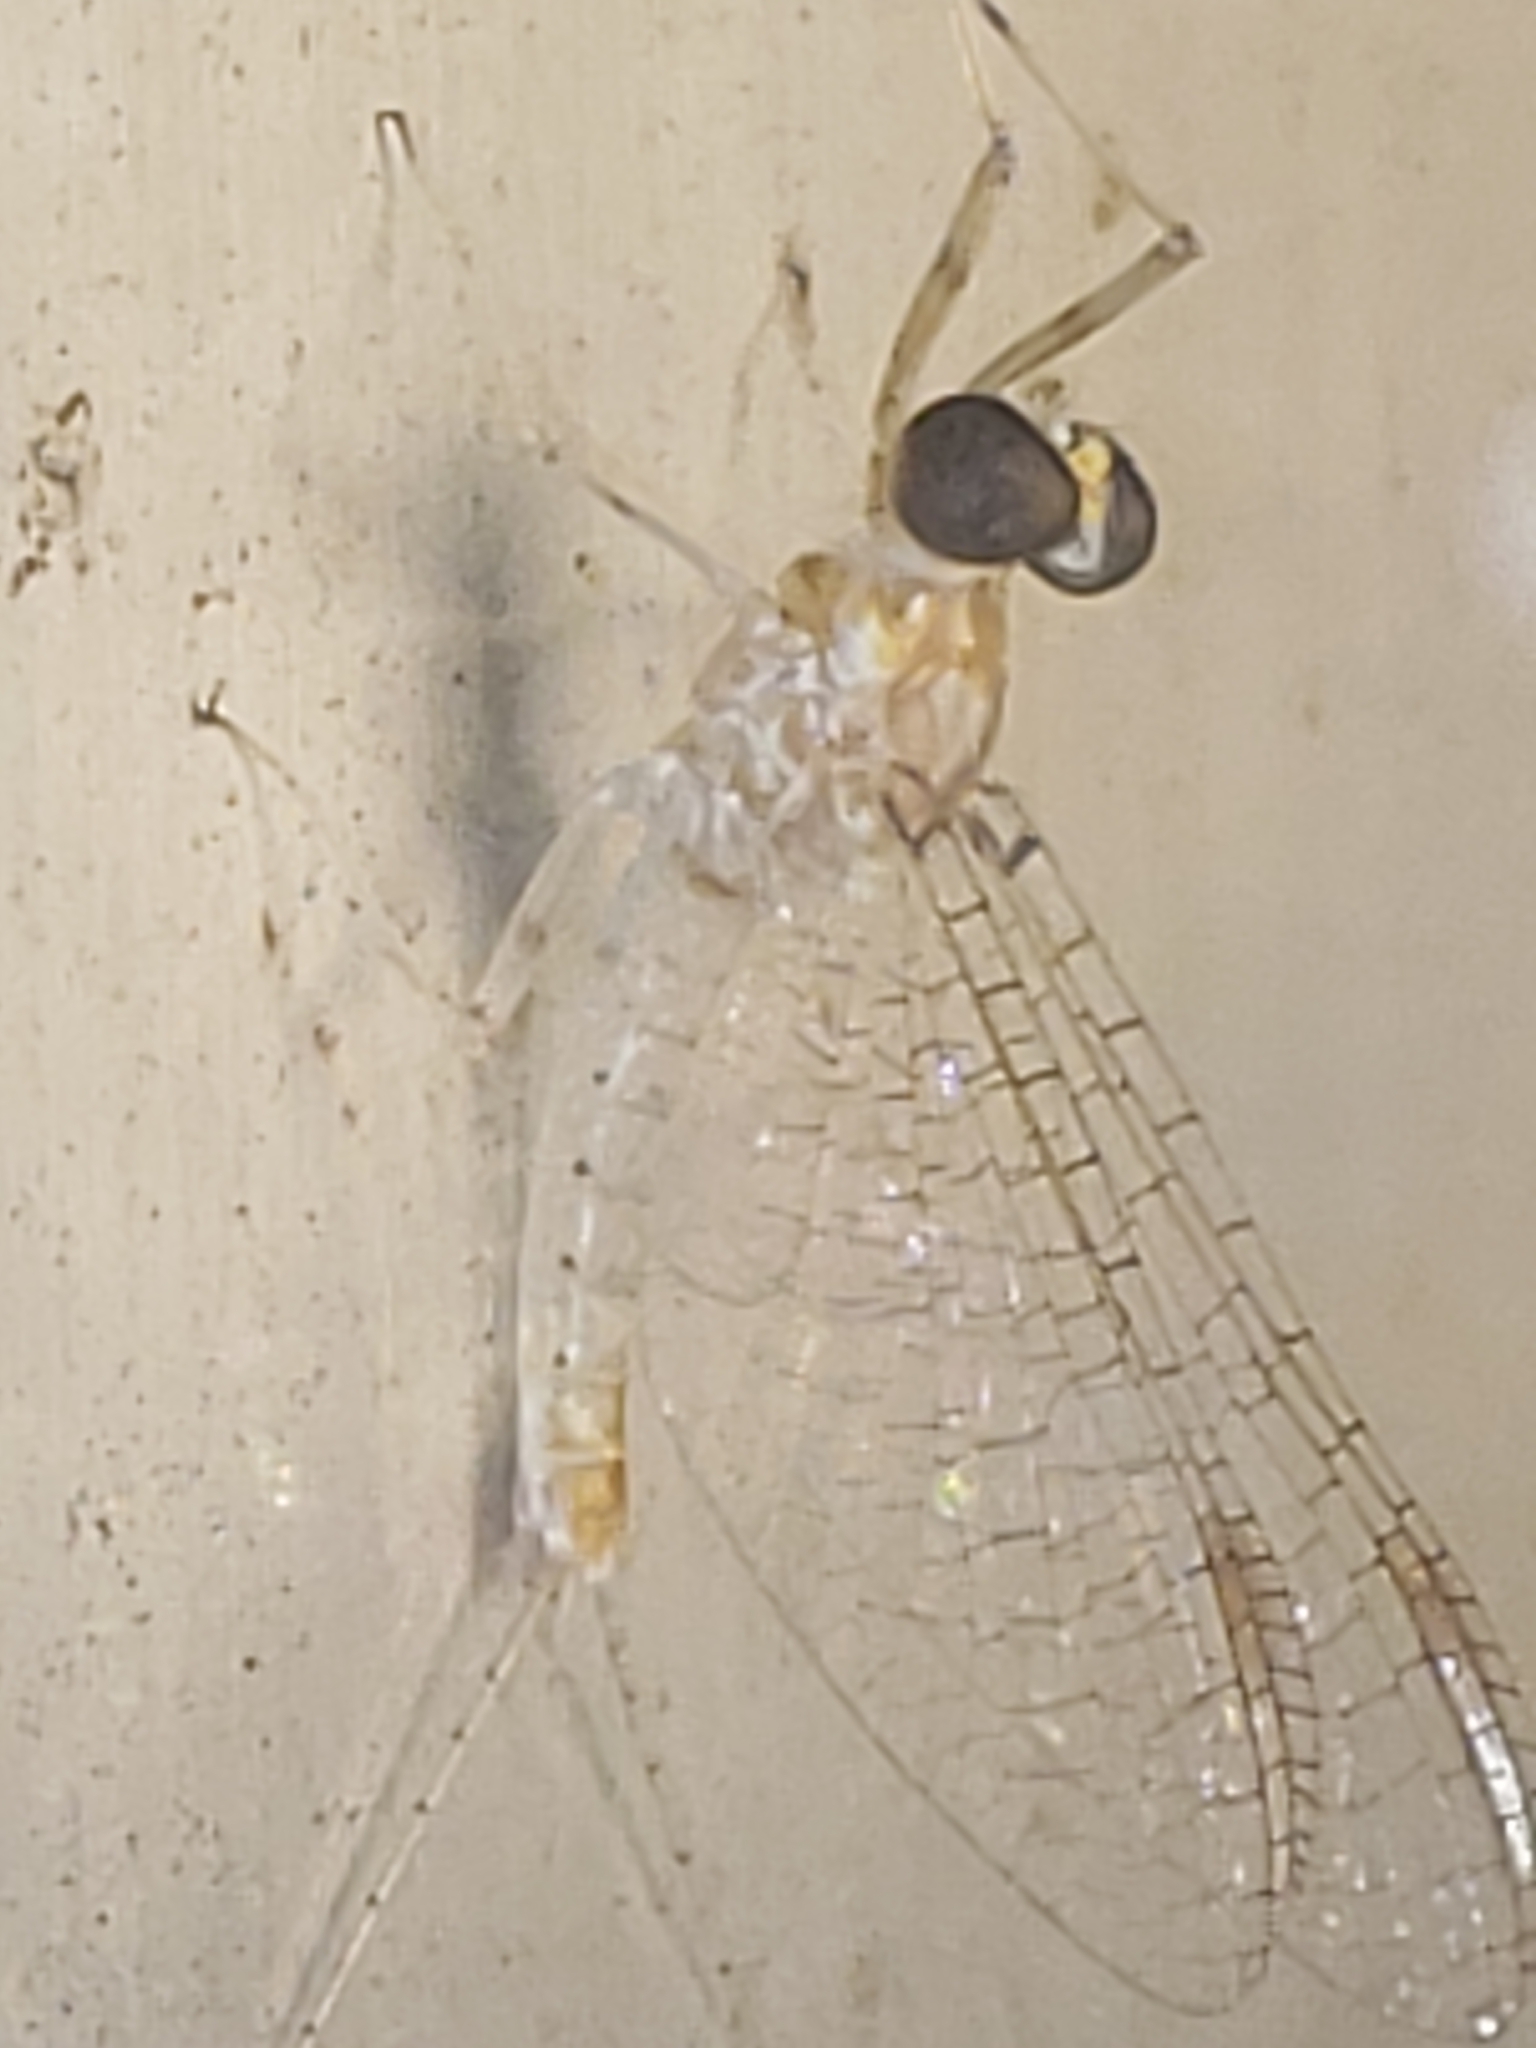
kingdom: Animalia
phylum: Arthropoda
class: Insecta
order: Ephemeroptera
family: Heptageniidae
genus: Maccaffertium
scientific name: Maccaffertium modestum
